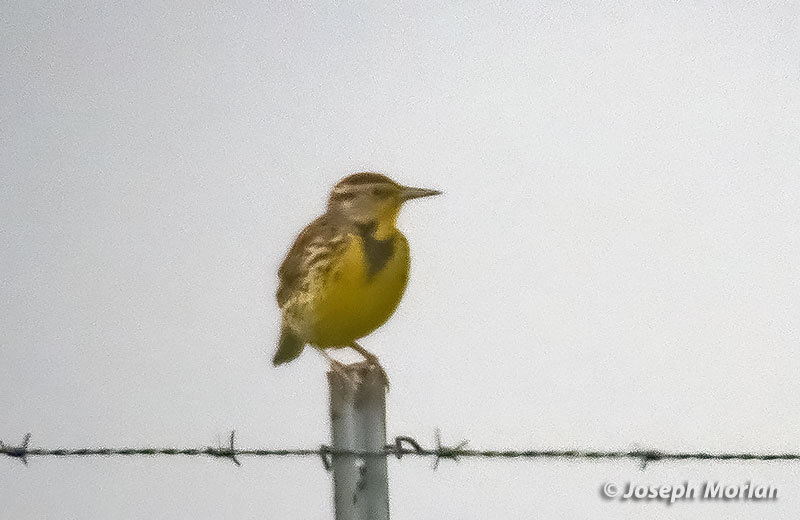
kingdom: Animalia
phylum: Chordata
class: Aves
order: Passeriformes
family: Icteridae
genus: Sturnella
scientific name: Sturnella neglecta
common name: Western meadowlark
